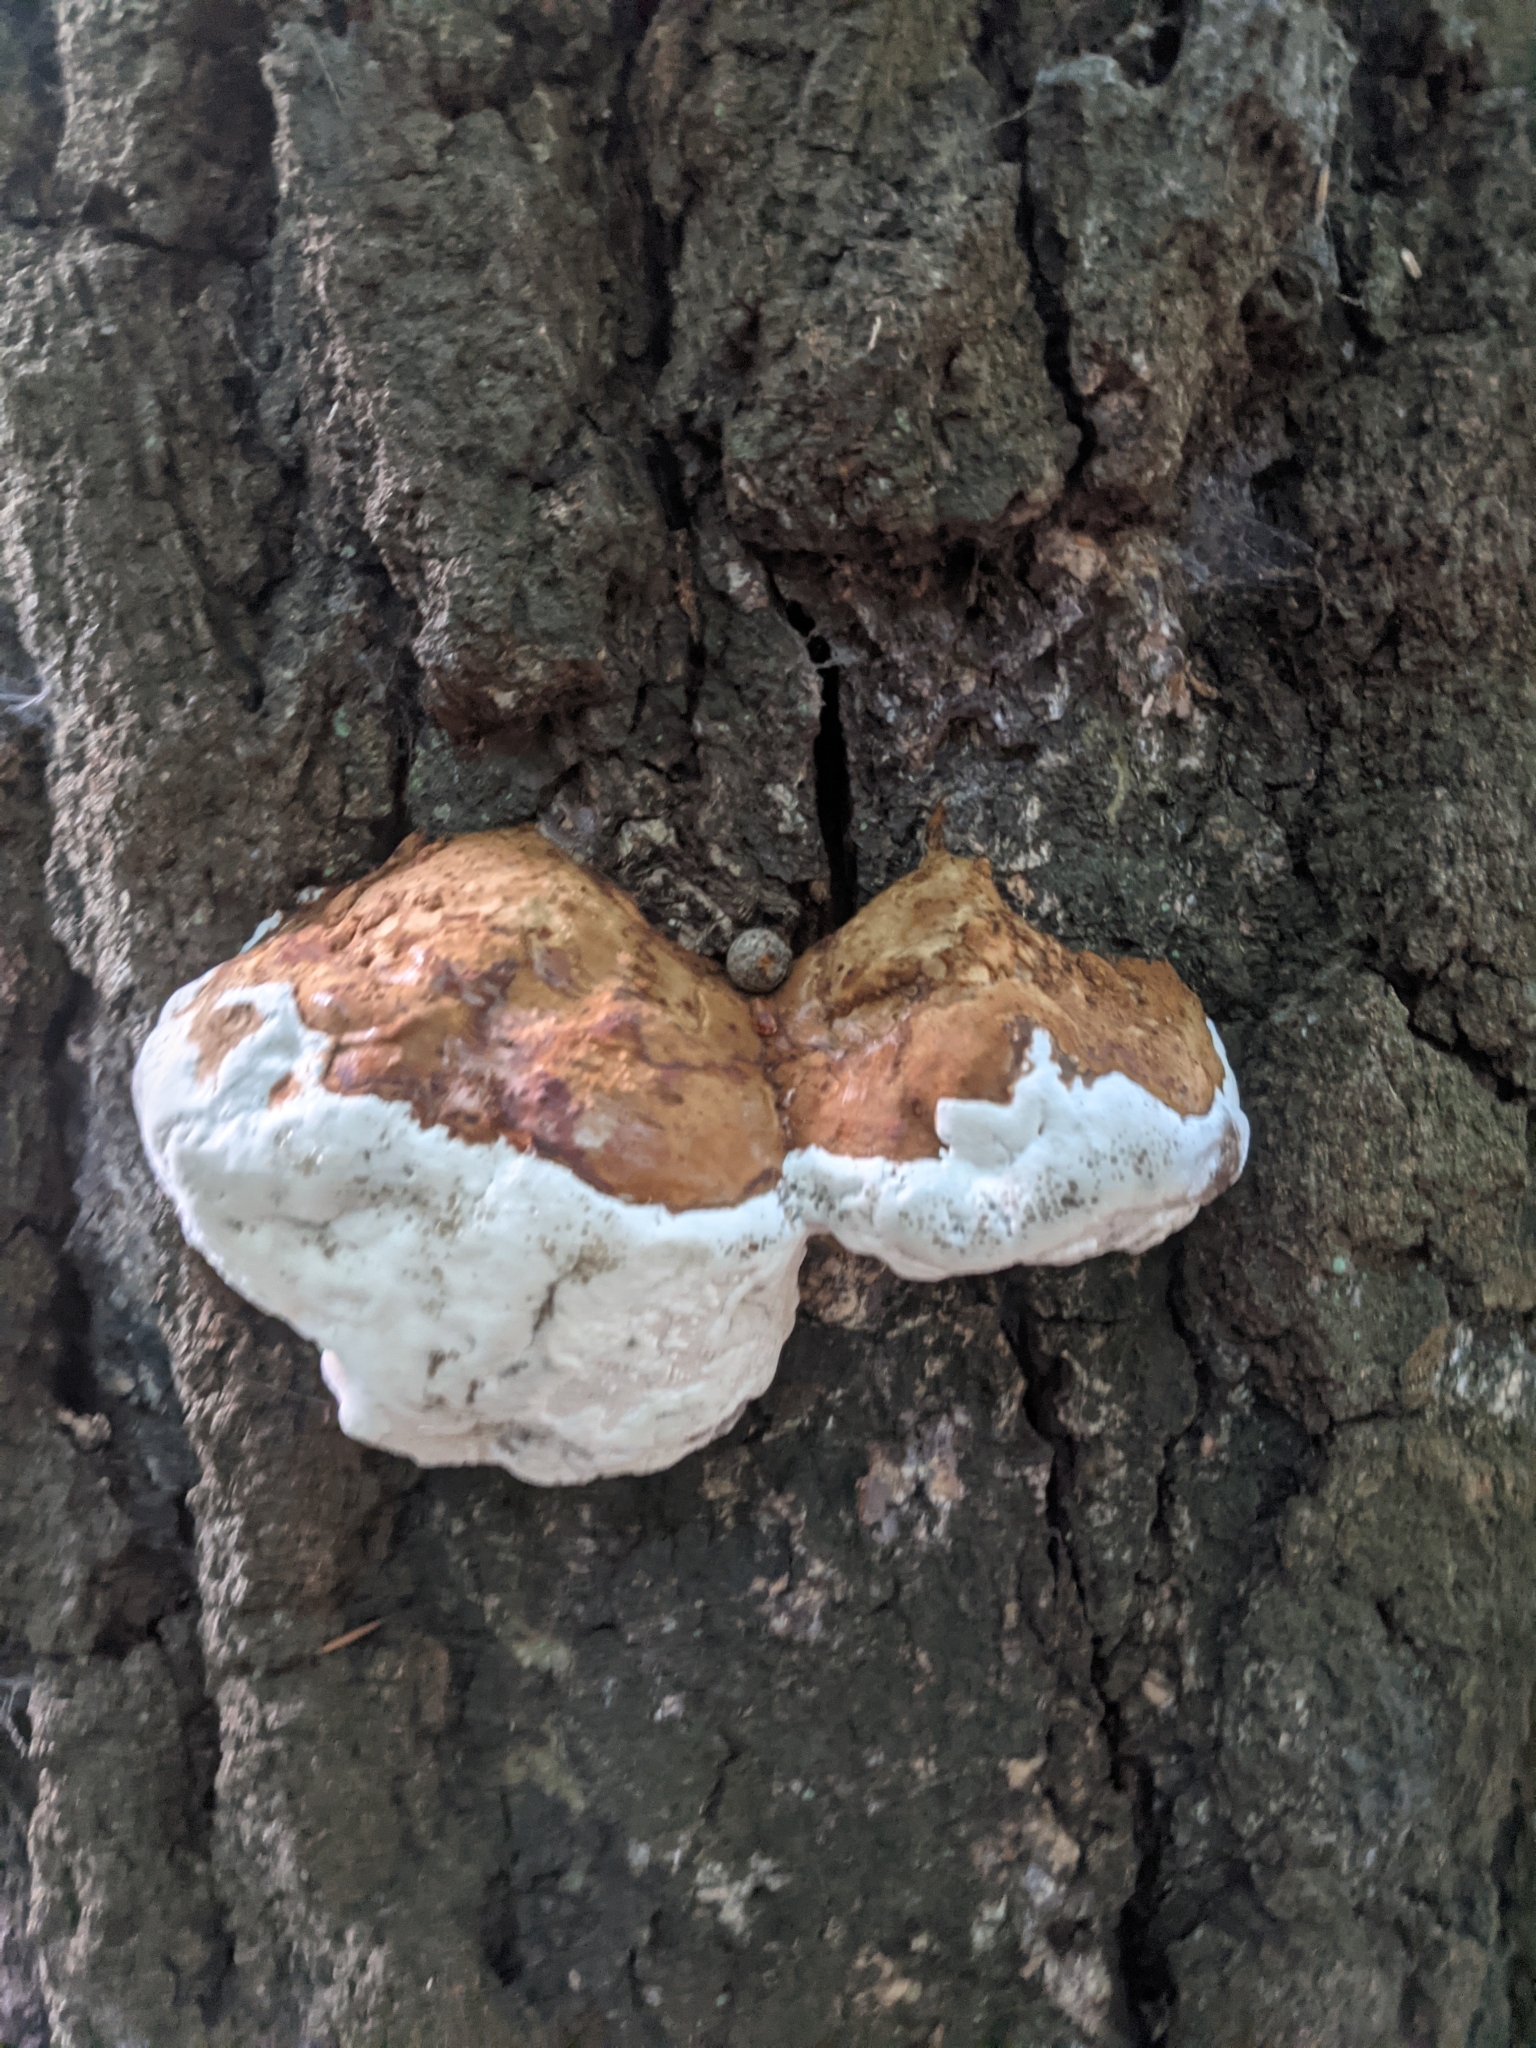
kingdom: Fungi
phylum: Basidiomycota
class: Agaricomycetes
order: Polyporales
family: Polyporaceae
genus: Fomes
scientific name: Fomes fomentarius
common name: Hoof fungus
